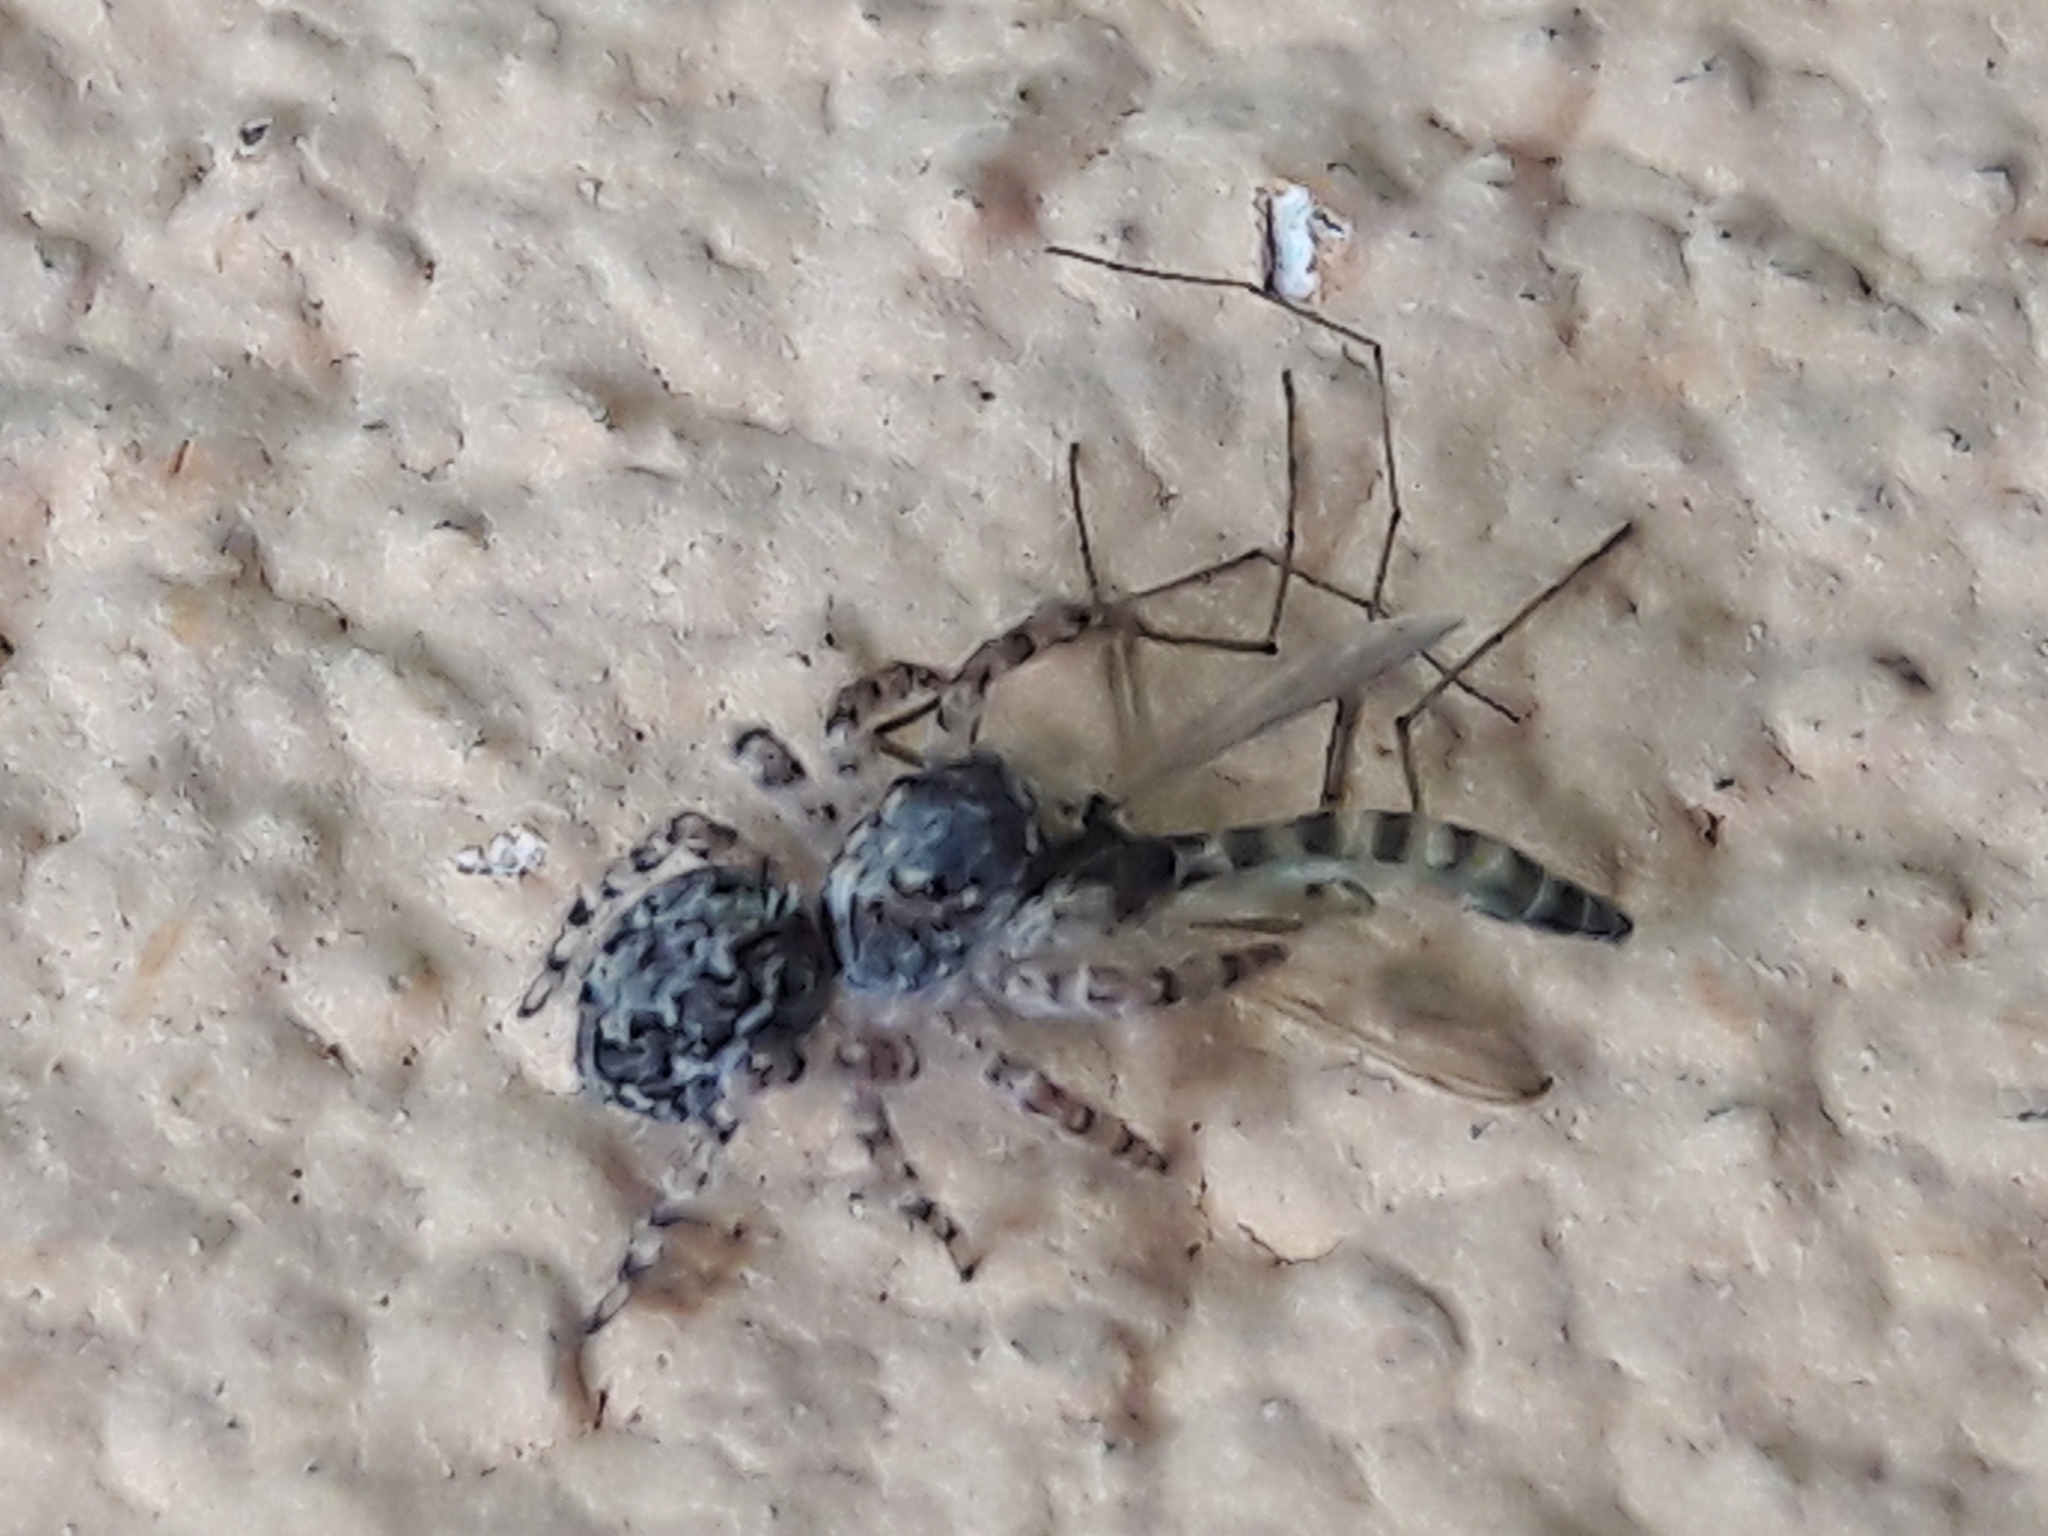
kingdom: Animalia
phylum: Arthropoda
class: Arachnida
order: Araneae
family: Salticidae
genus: Marma
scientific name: Marma nigritarsis
